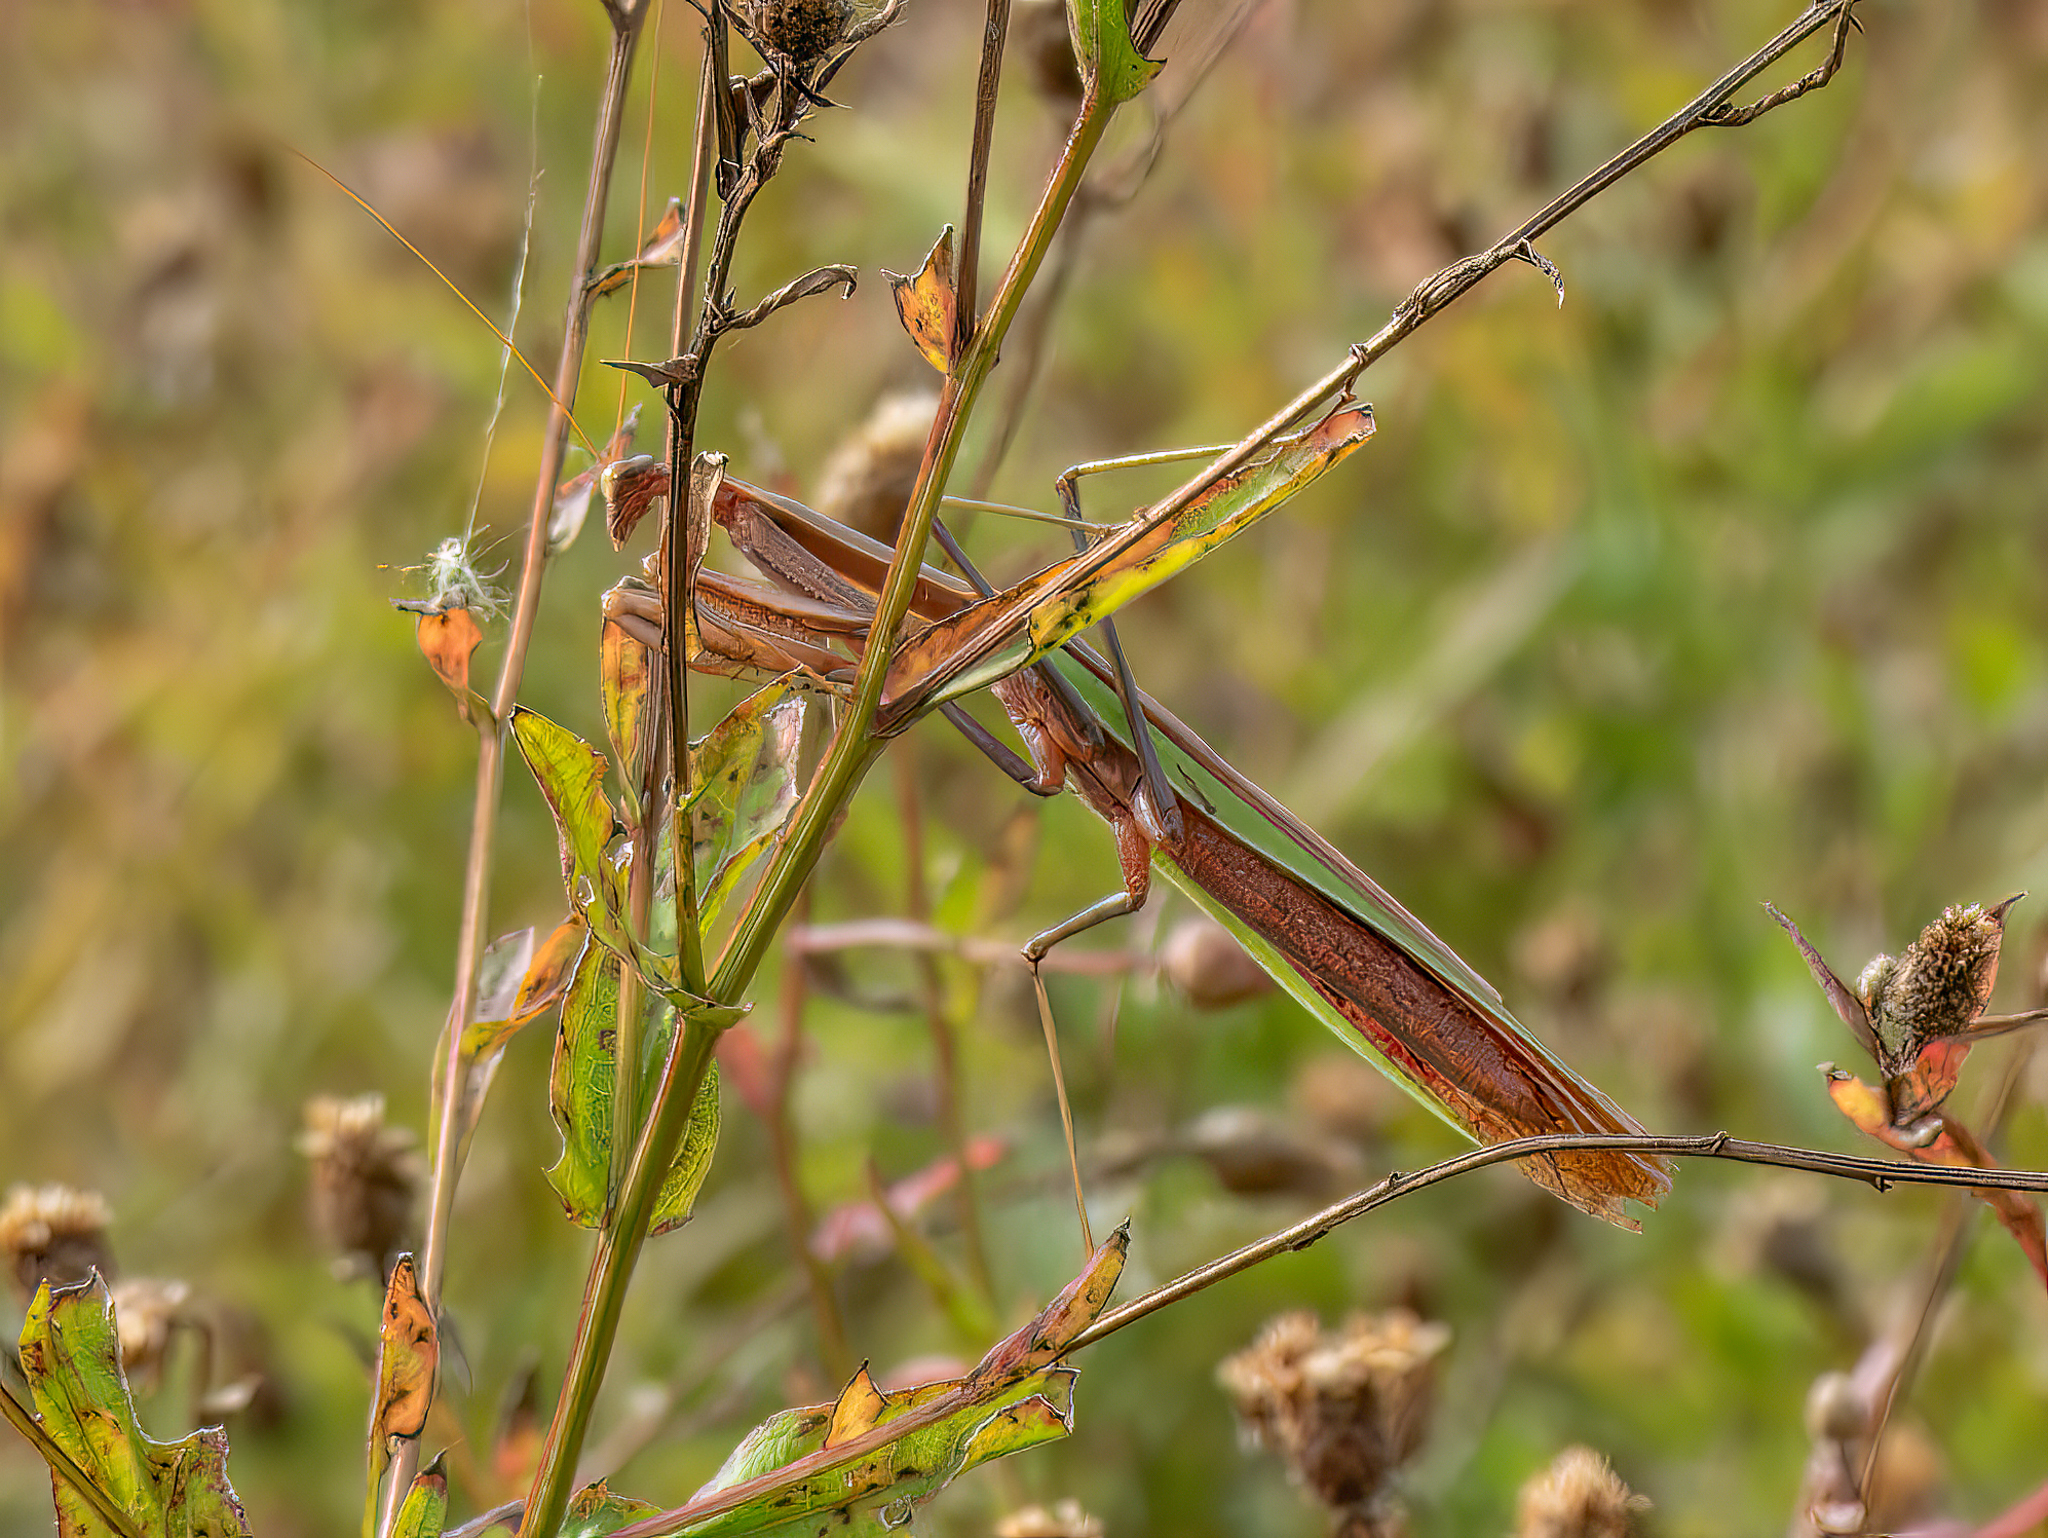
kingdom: Animalia
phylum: Arthropoda
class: Insecta
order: Mantodea
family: Mantidae
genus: Tenodera
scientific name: Tenodera sinensis
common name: Chinese mantis
